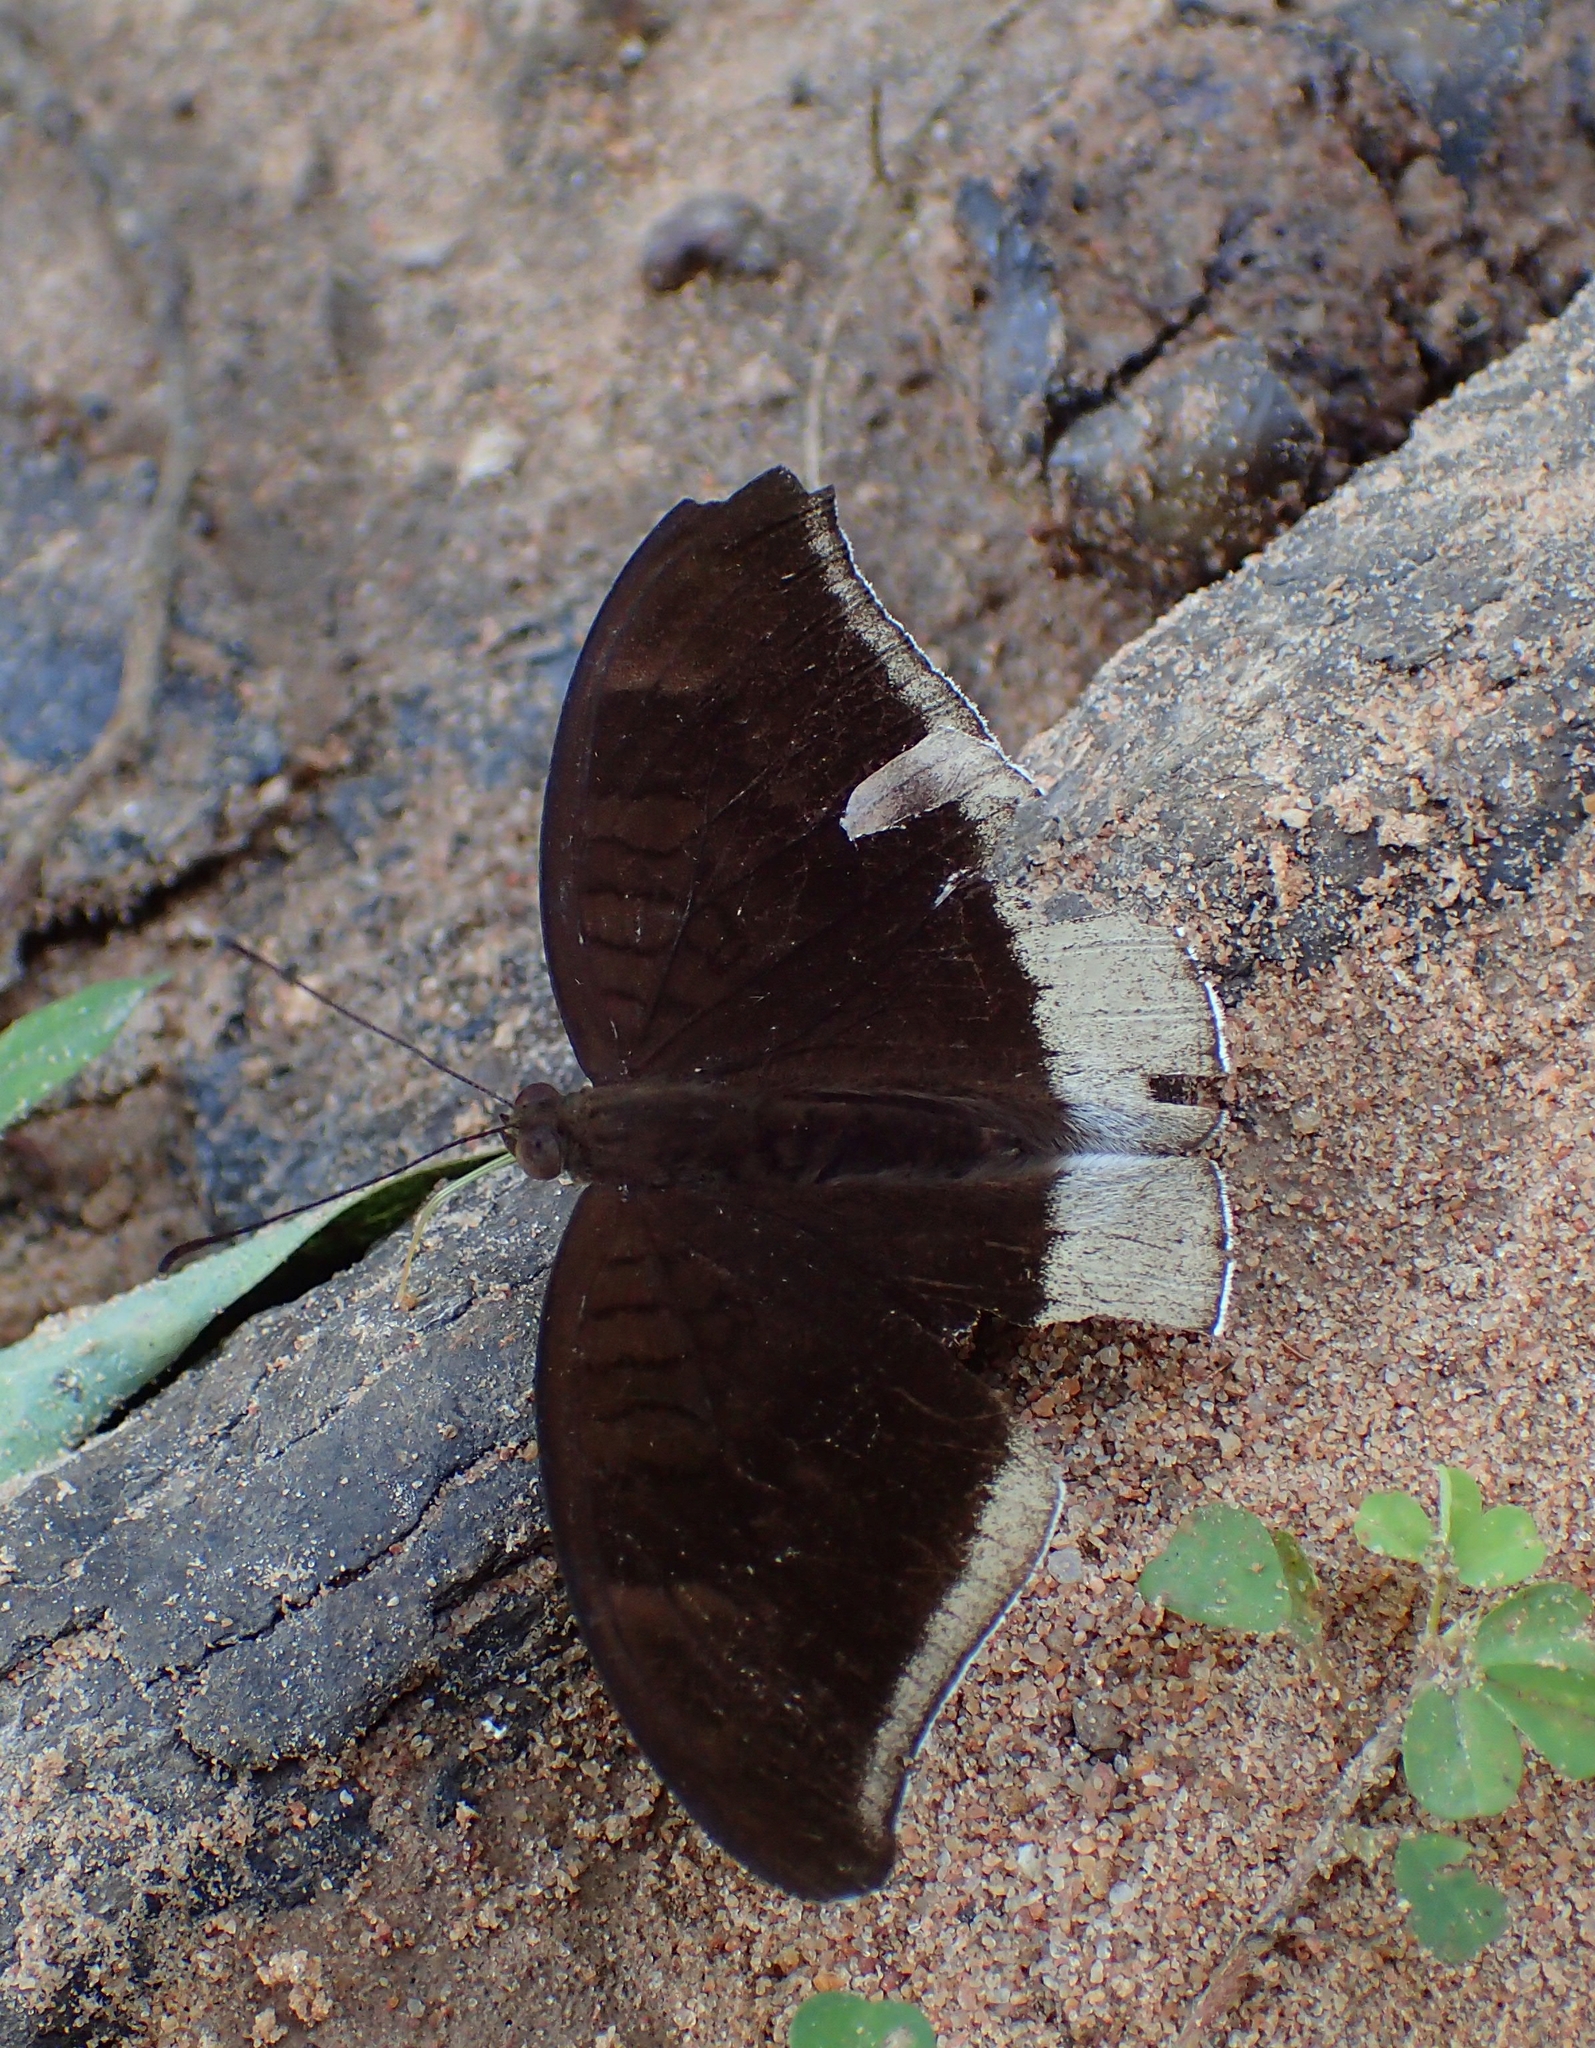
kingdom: Animalia
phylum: Arthropoda
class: Insecta
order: Lepidoptera
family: Nymphalidae
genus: Tanaecia
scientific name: Tanaecia lepidea
